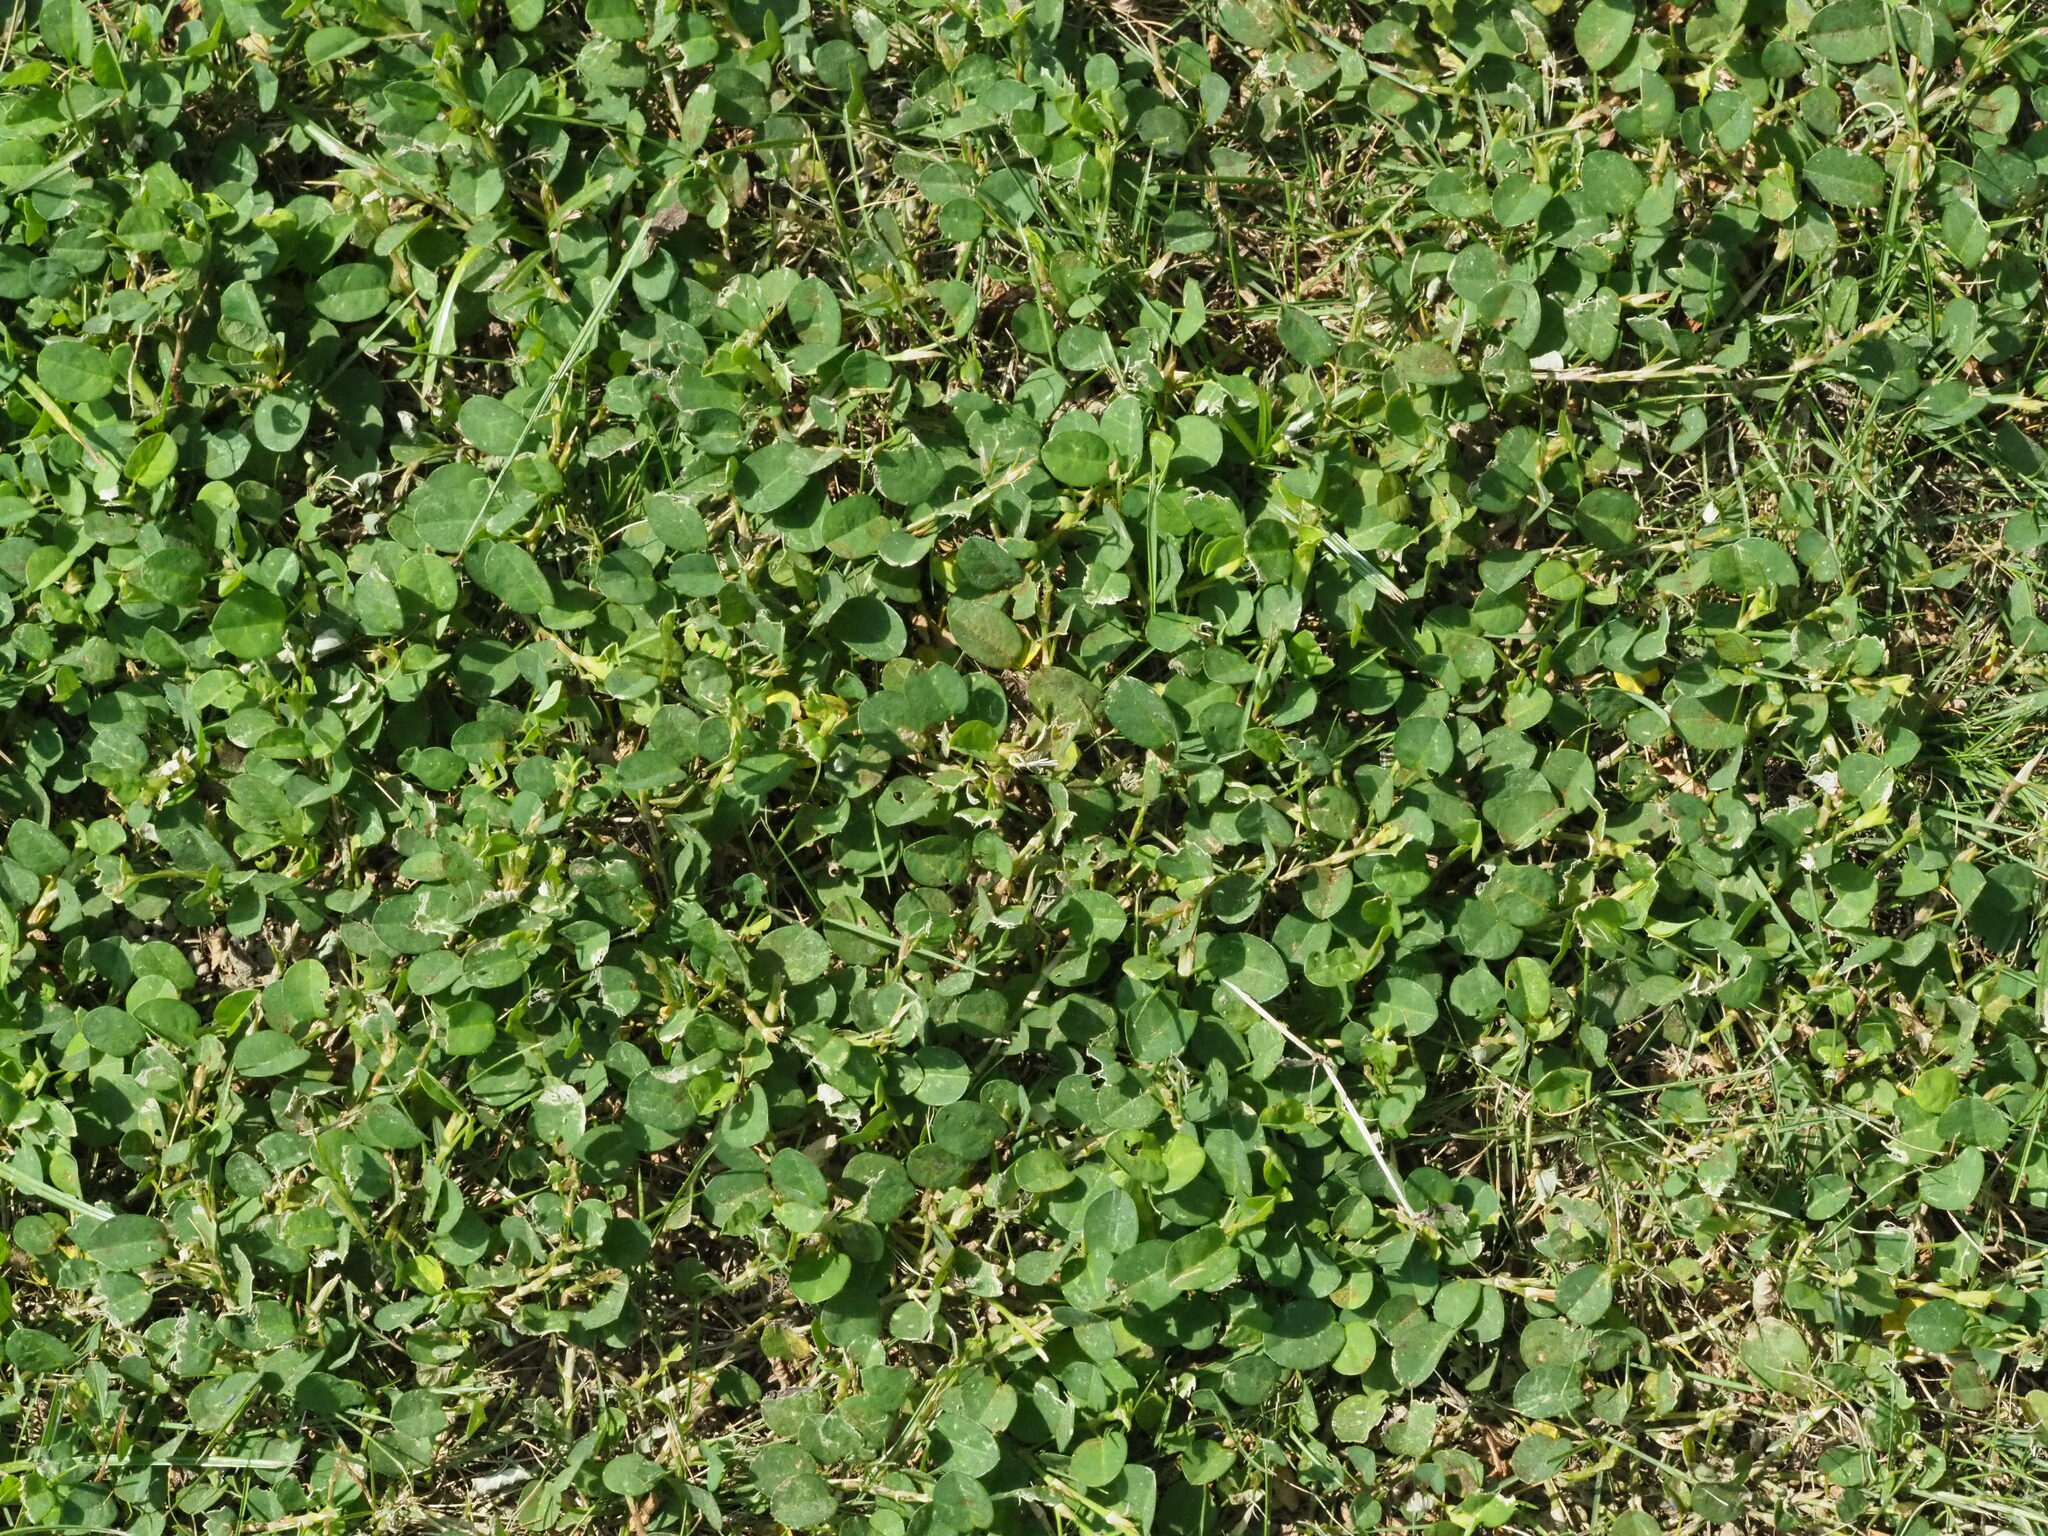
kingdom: Plantae
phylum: Tracheophyta
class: Magnoliopsida
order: Fabales
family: Fabaceae
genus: Alysicarpus
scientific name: Alysicarpus vaginalis
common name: White moneywort
